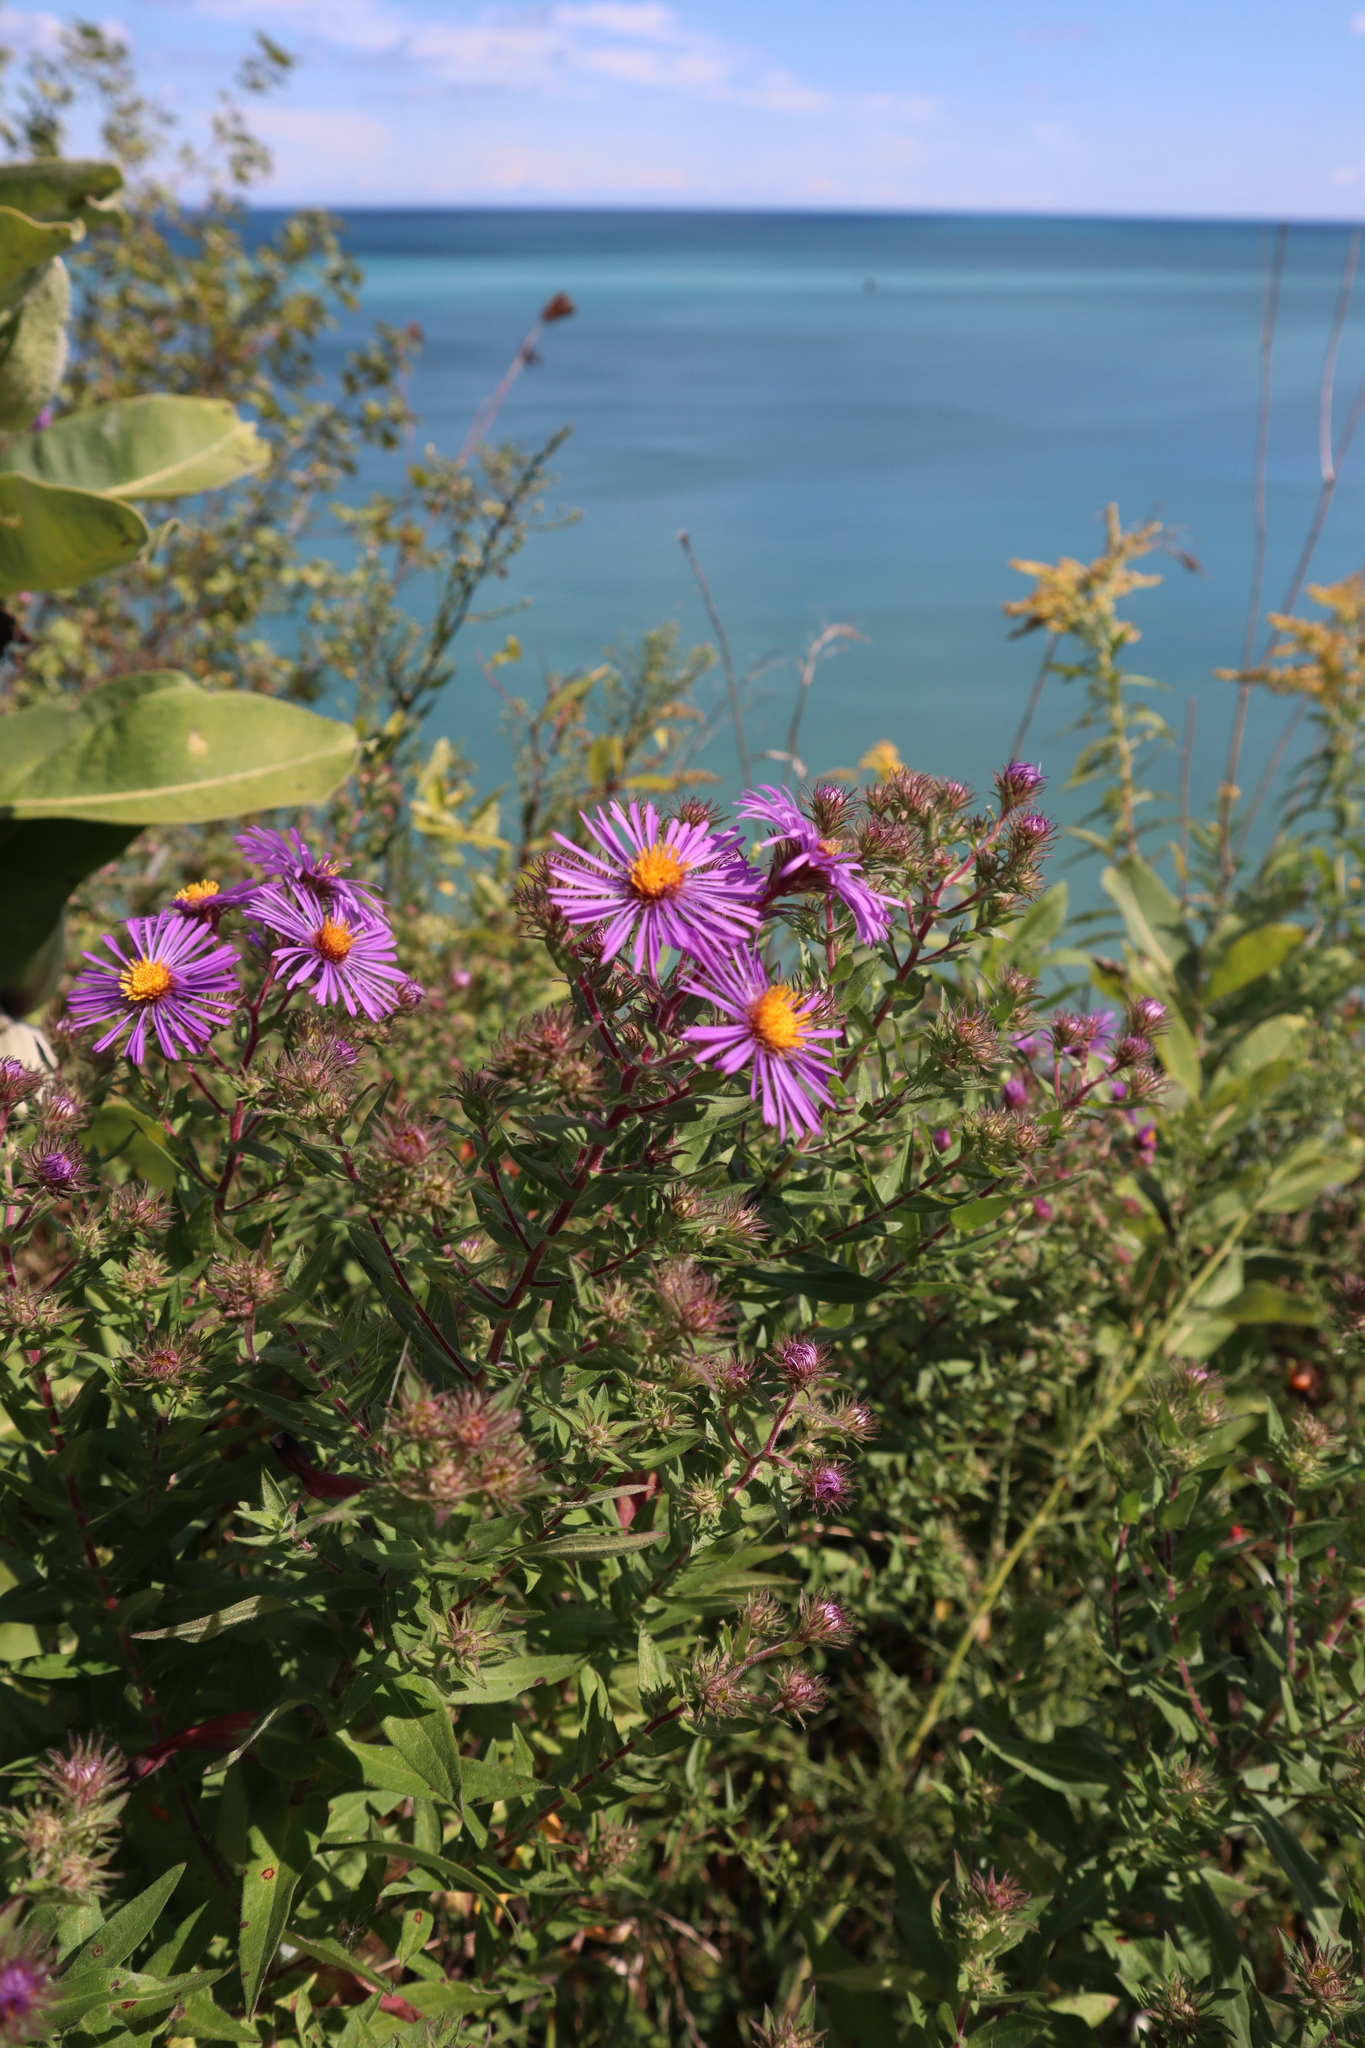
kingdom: Plantae
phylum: Tracheophyta
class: Magnoliopsida
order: Asterales
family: Asteraceae
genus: Symphyotrichum
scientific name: Symphyotrichum novae-angliae
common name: Michaelmas daisy
